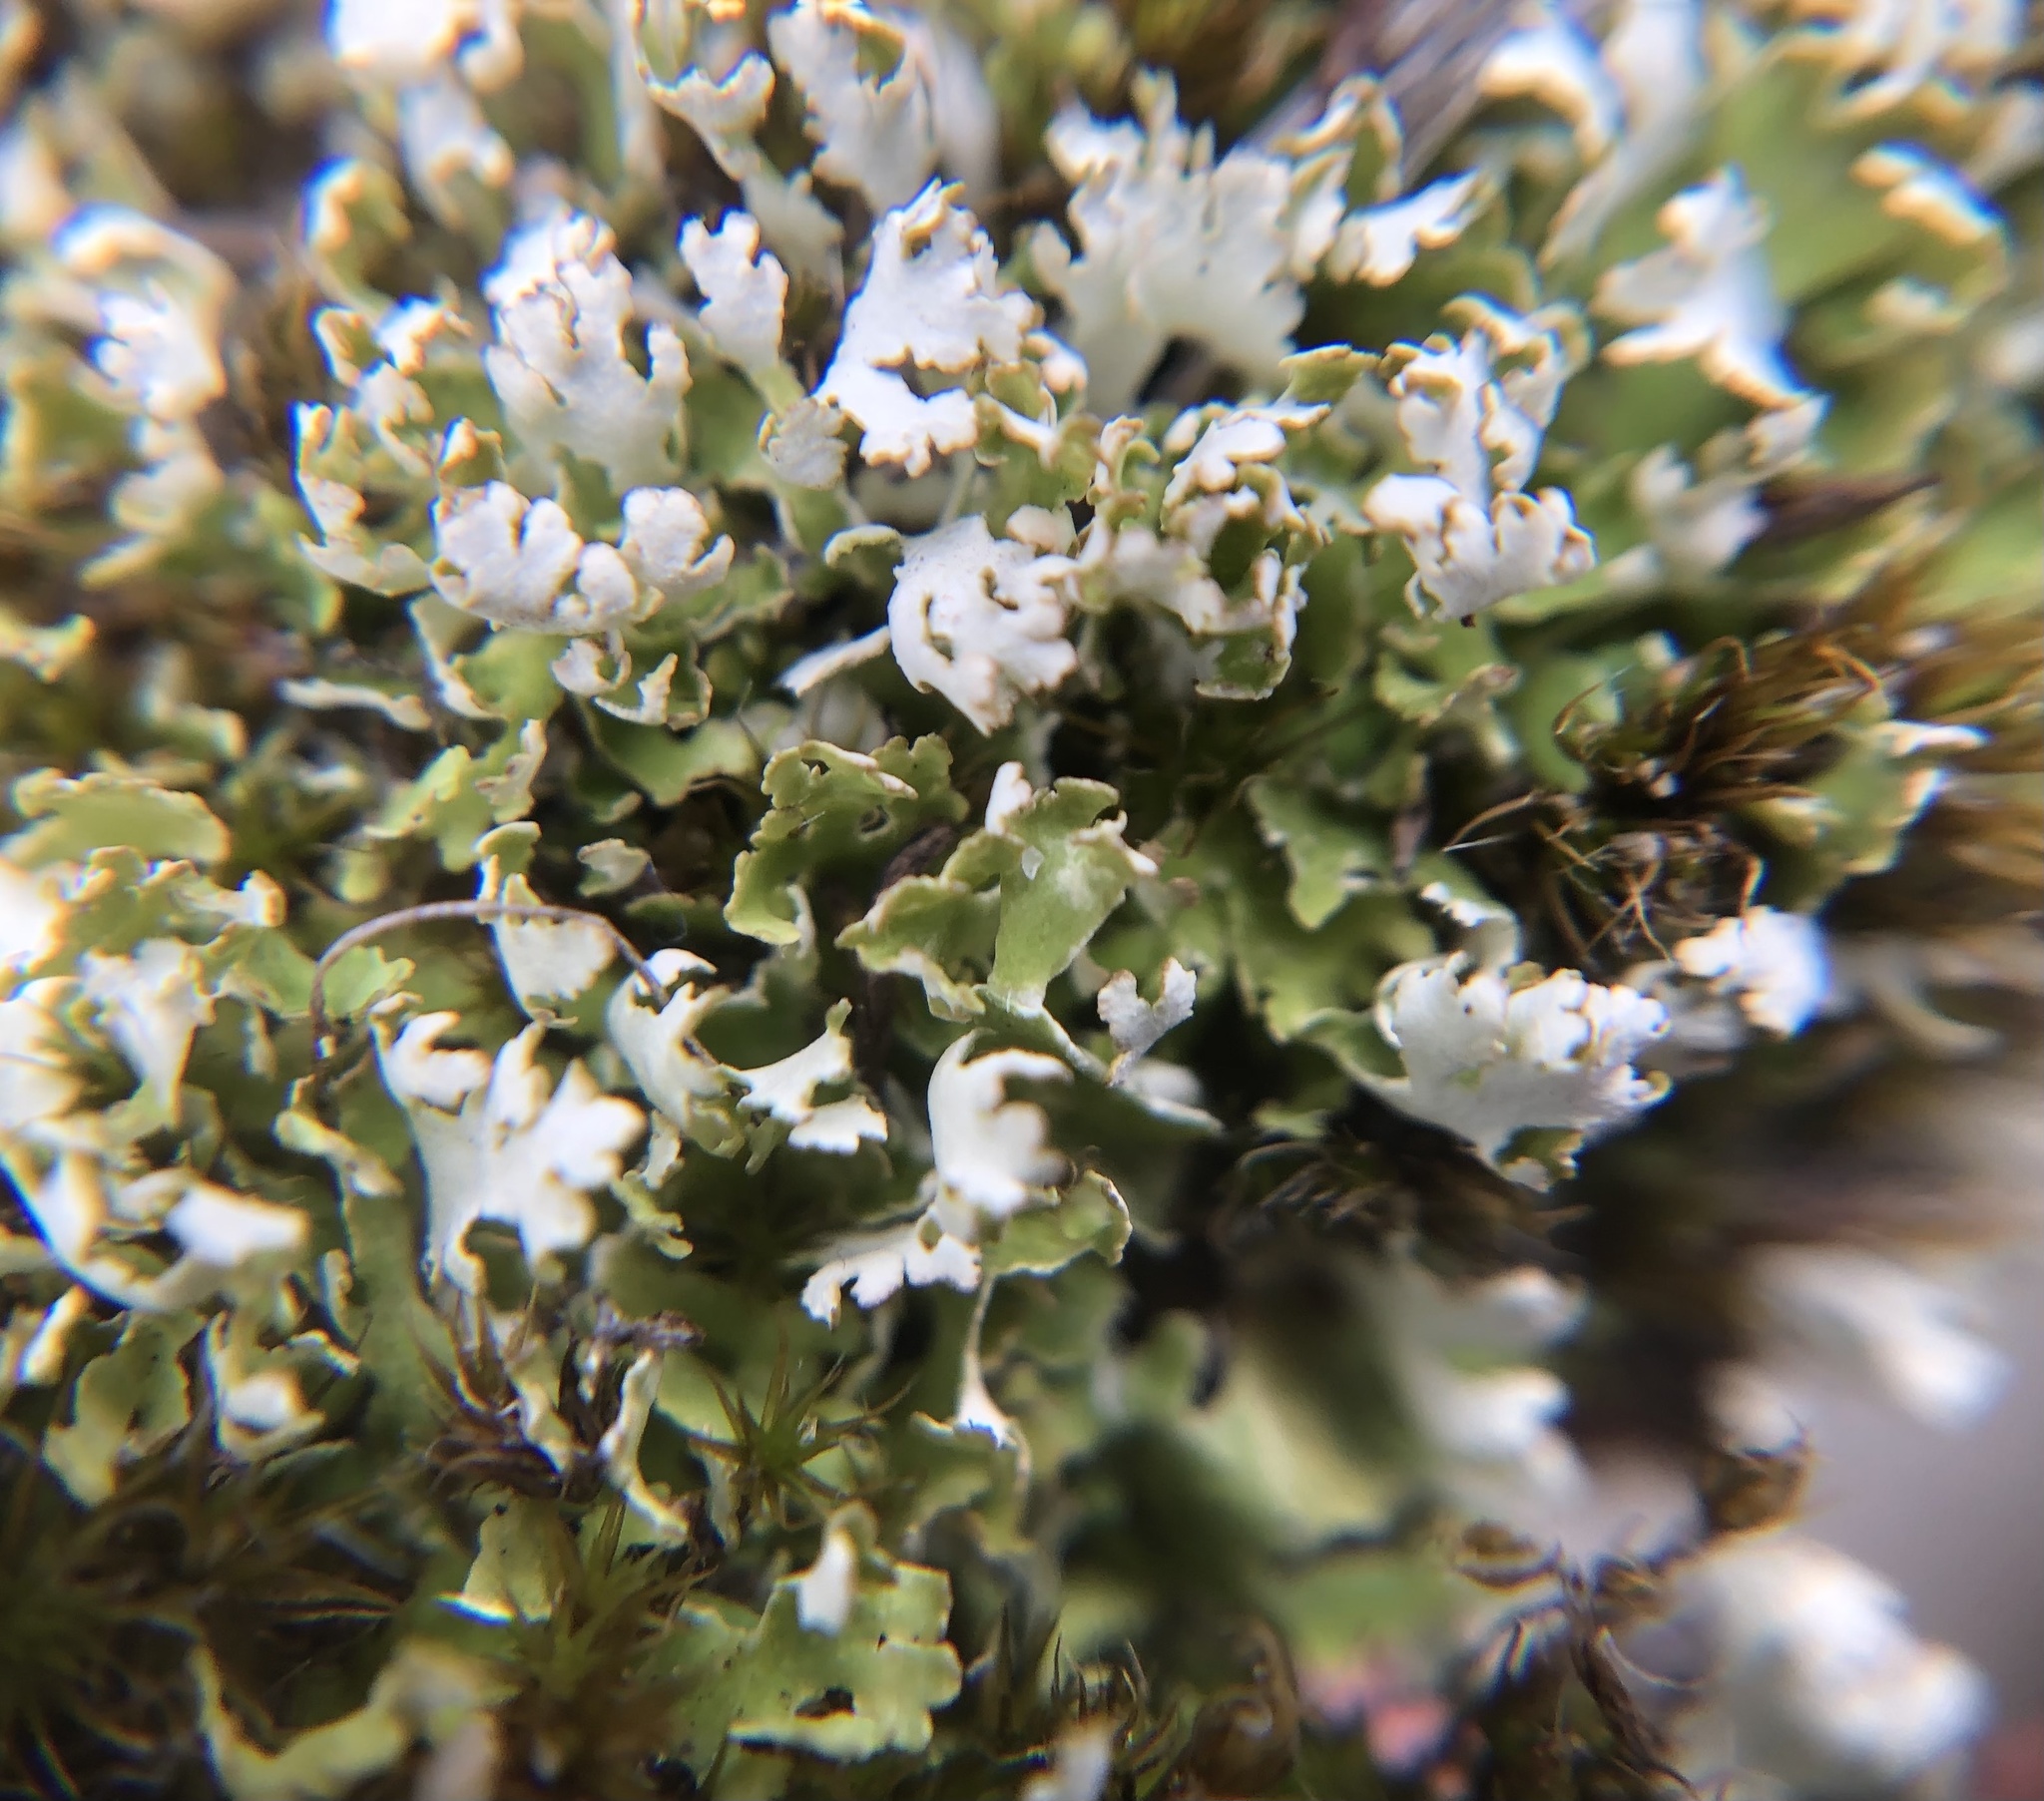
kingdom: Fungi
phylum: Ascomycota
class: Lecanoromycetes
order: Lecanorales
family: Cladoniaceae
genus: Cladonia
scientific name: Cladonia foliacea
